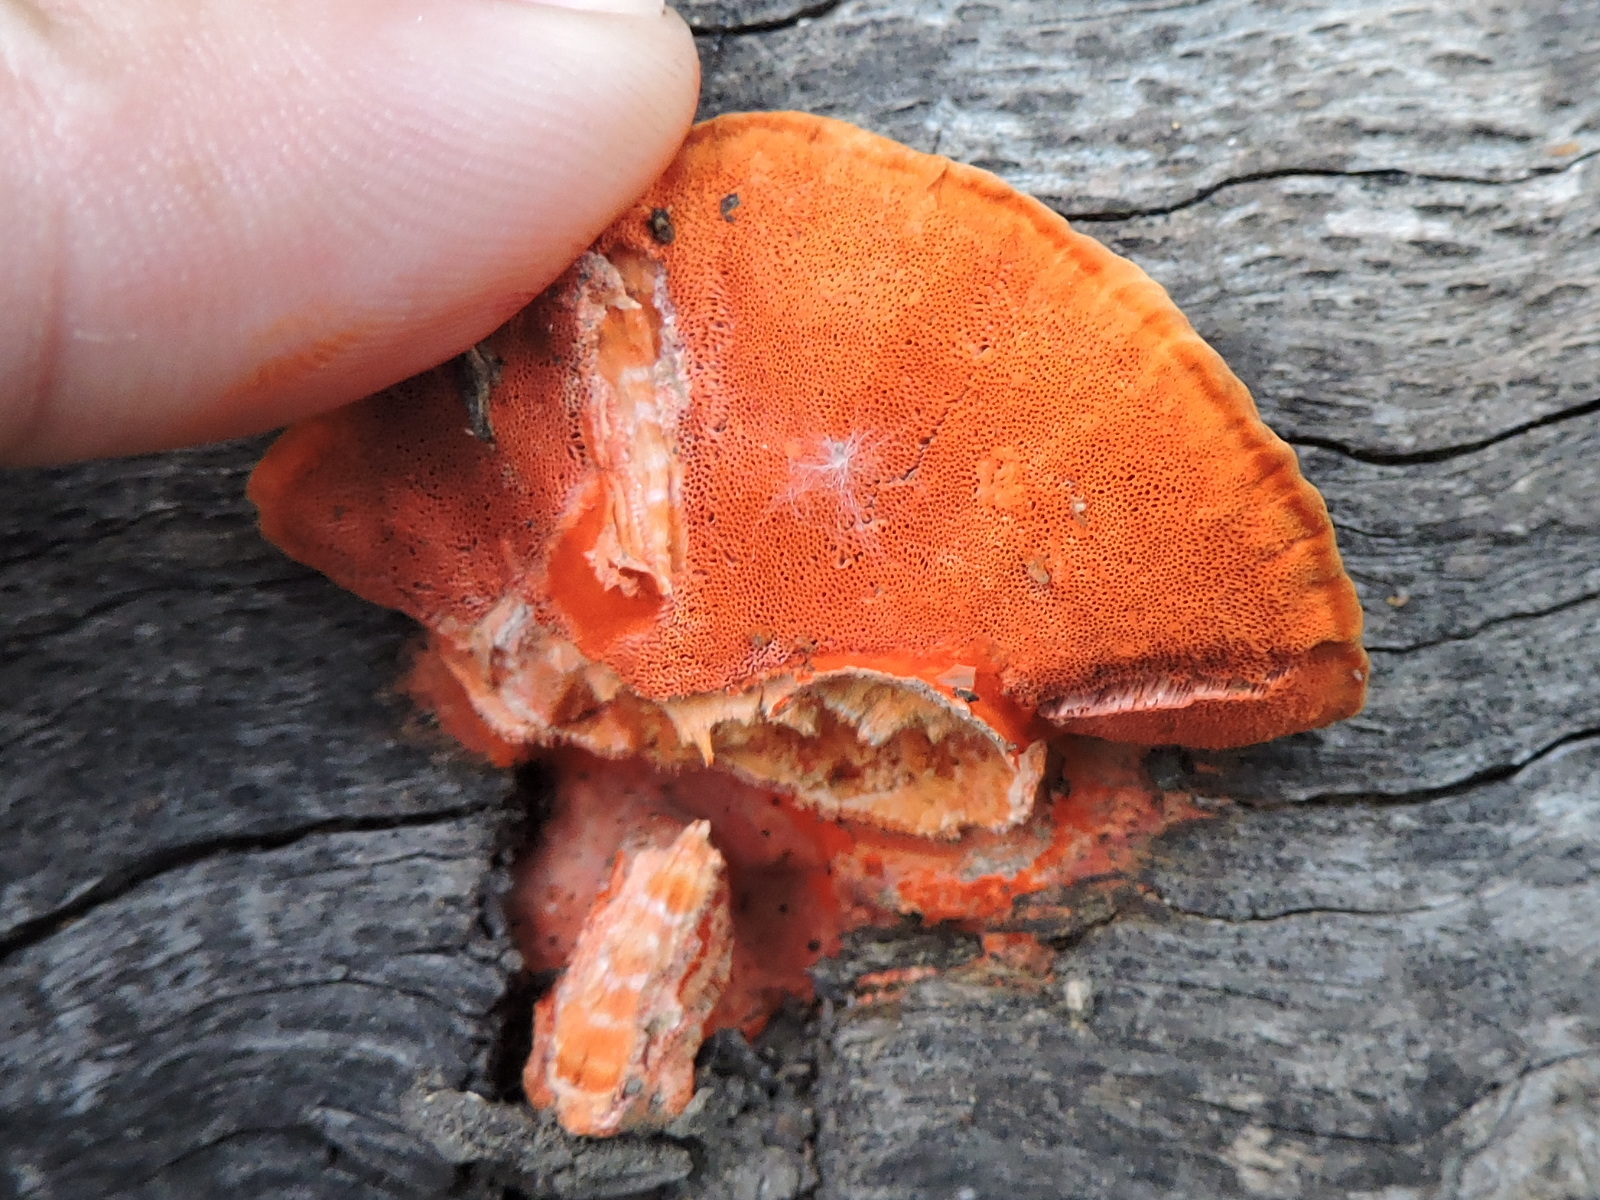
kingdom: Fungi
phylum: Basidiomycota
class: Agaricomycetes
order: Polyporales
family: Polyporaceae
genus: Trametes
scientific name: Trametes cinnabarina
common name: Northern cinnabar polypore
